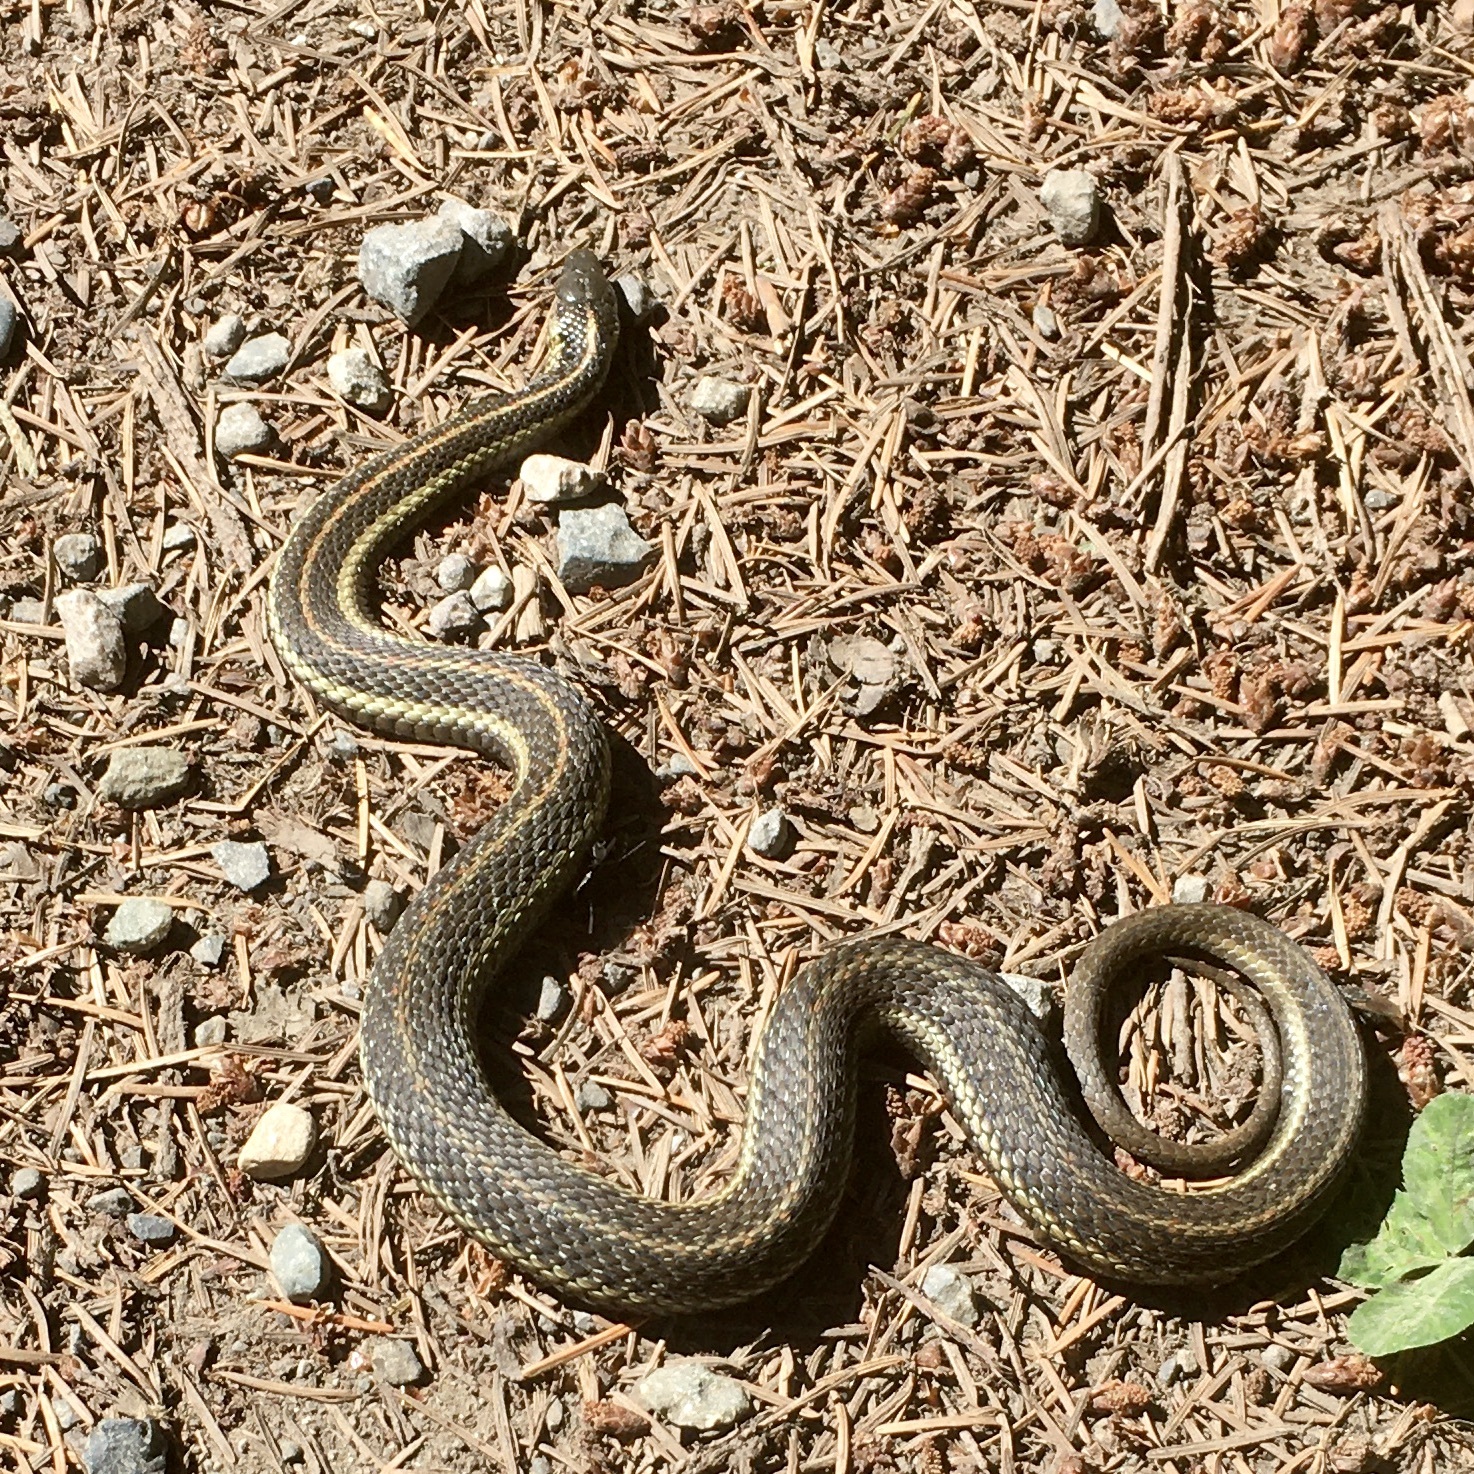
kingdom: Animalia
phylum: Chordata
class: Squamata
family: Colubridae
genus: Thamnophis
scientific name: Thamnophis ordinoides
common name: Northwestern garter snake
